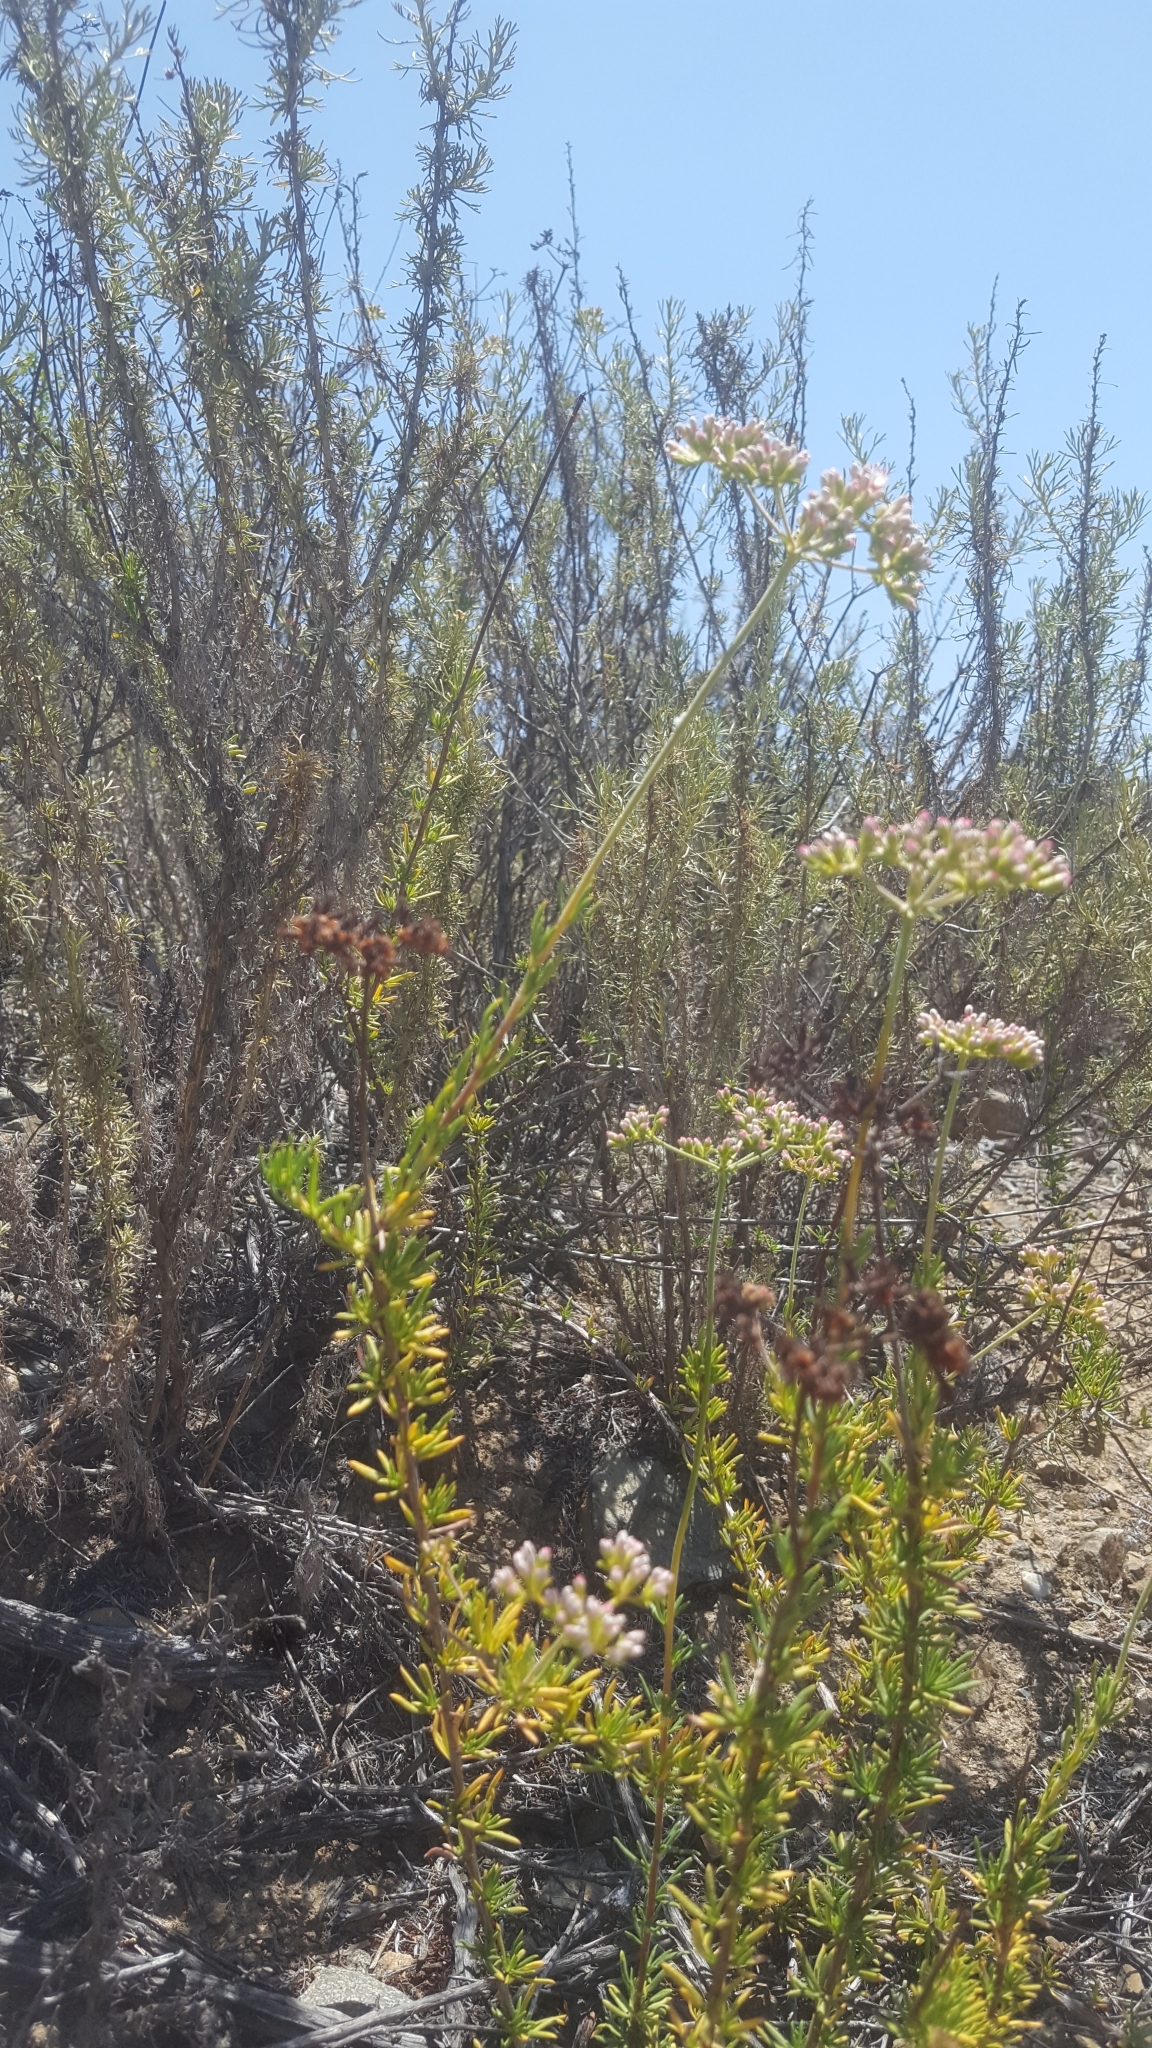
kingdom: Plantae
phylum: Tracheophyta
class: Magnoliopsida
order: Caryophyllales
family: Polygonaceae
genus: Eriogonum
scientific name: Eriogonum fasciculatum
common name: California wild buckwheat
